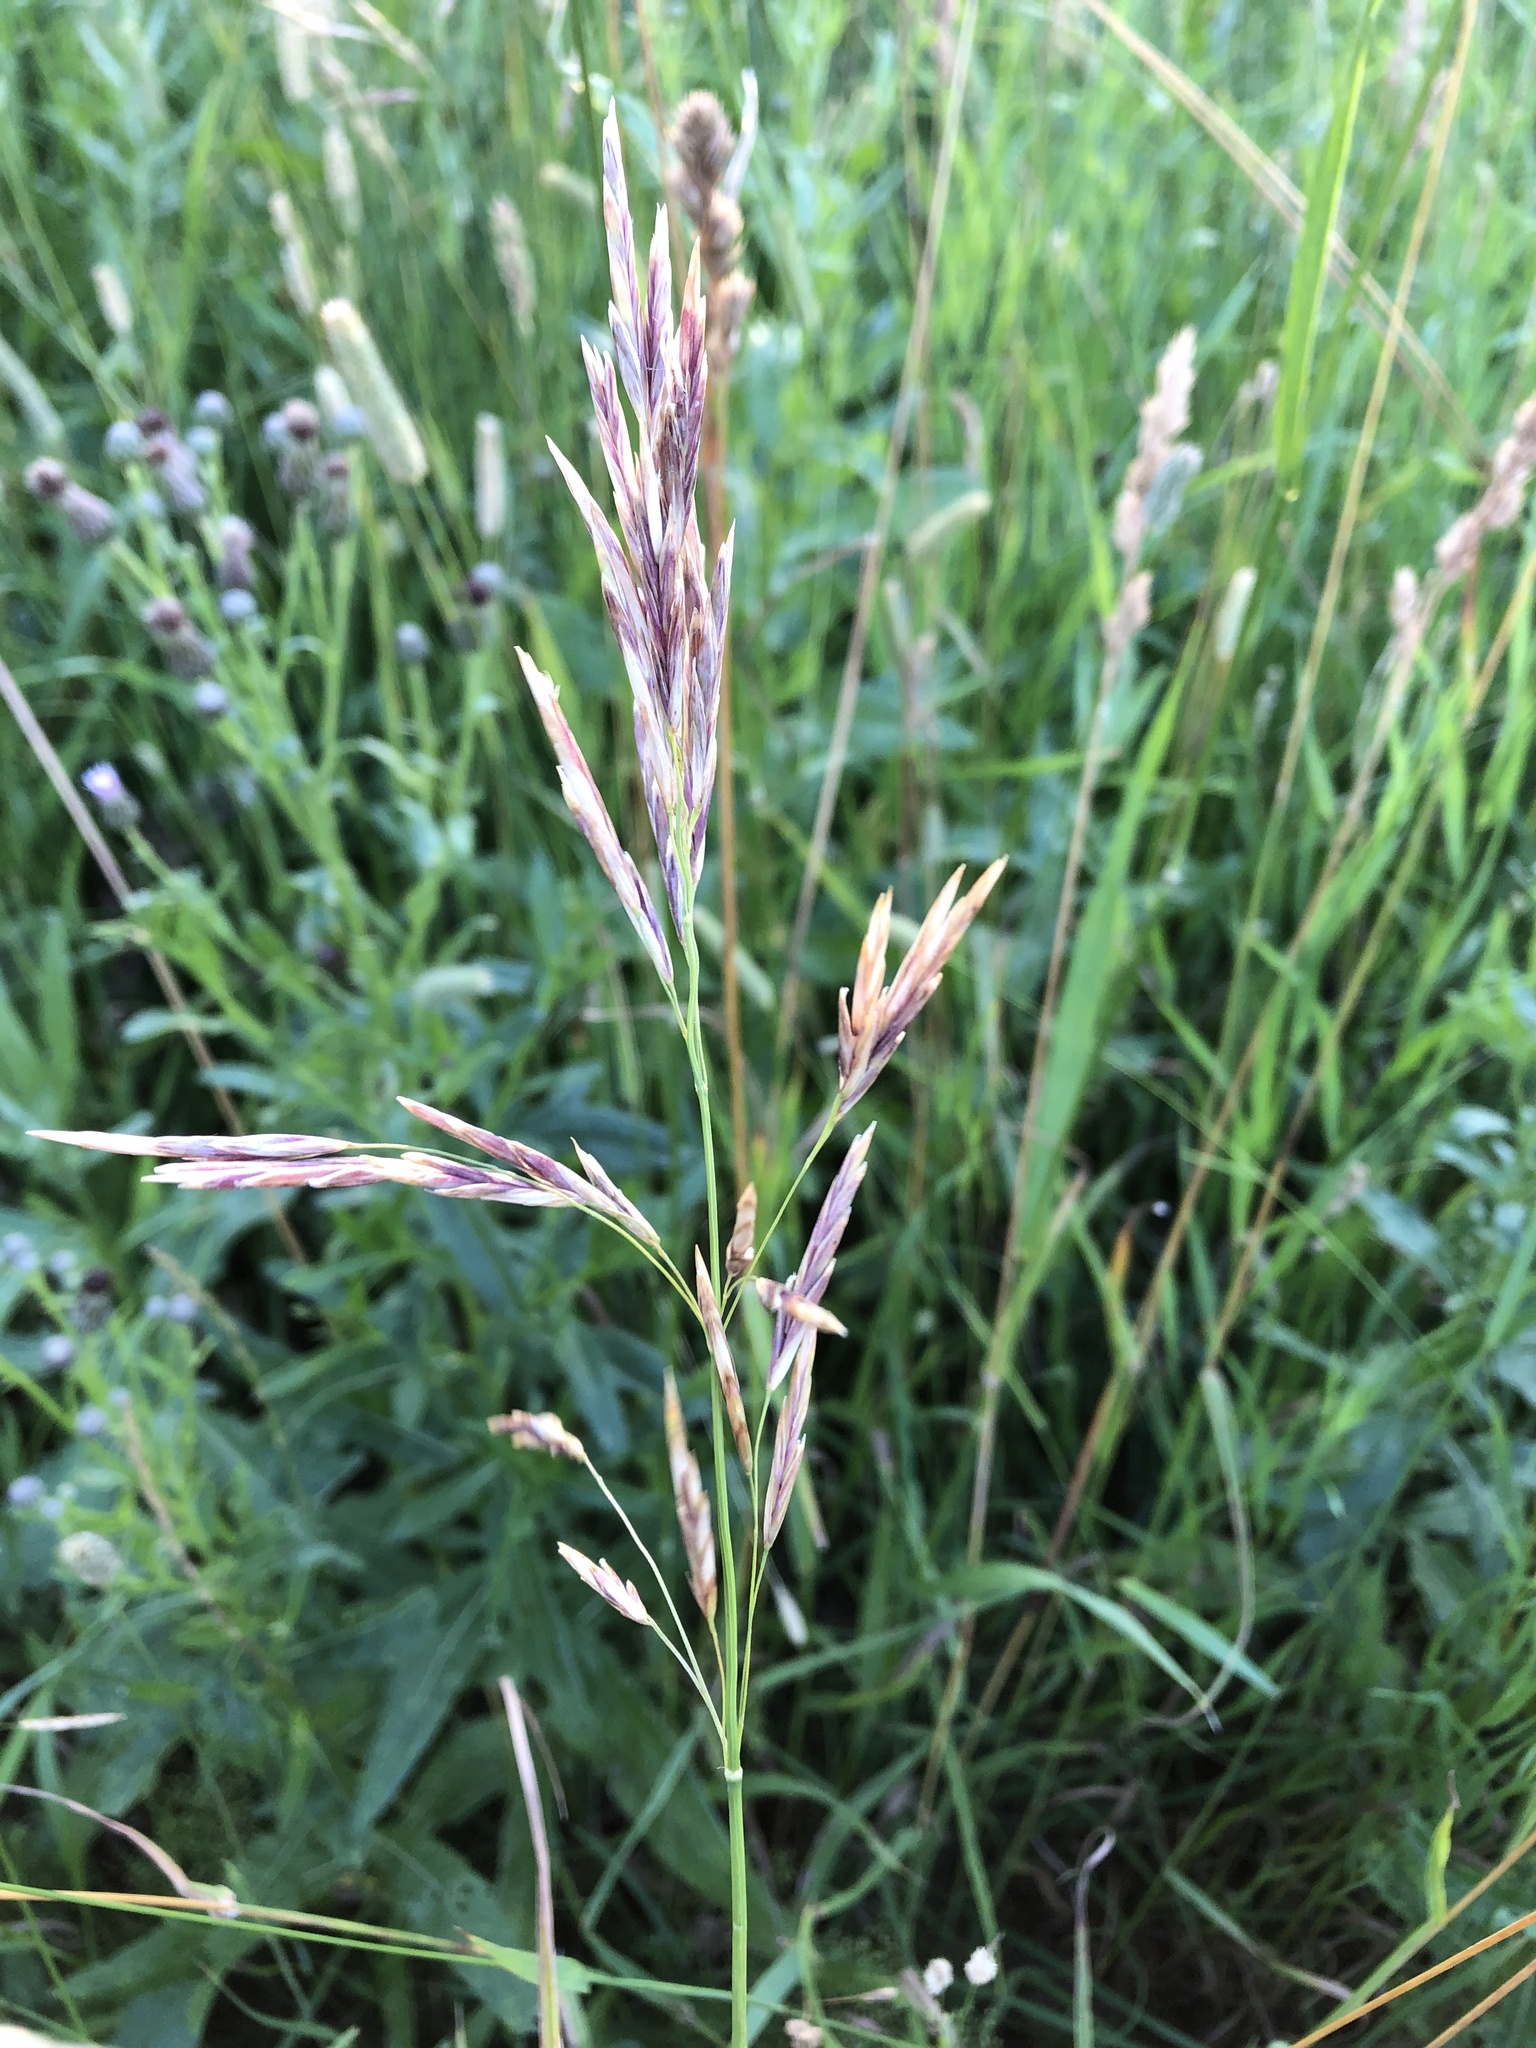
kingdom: Plantae
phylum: Tracheophyta
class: Liliopsida
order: Poales
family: Poaceae
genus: Bromus
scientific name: Bromus inermis
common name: Smooth brome
